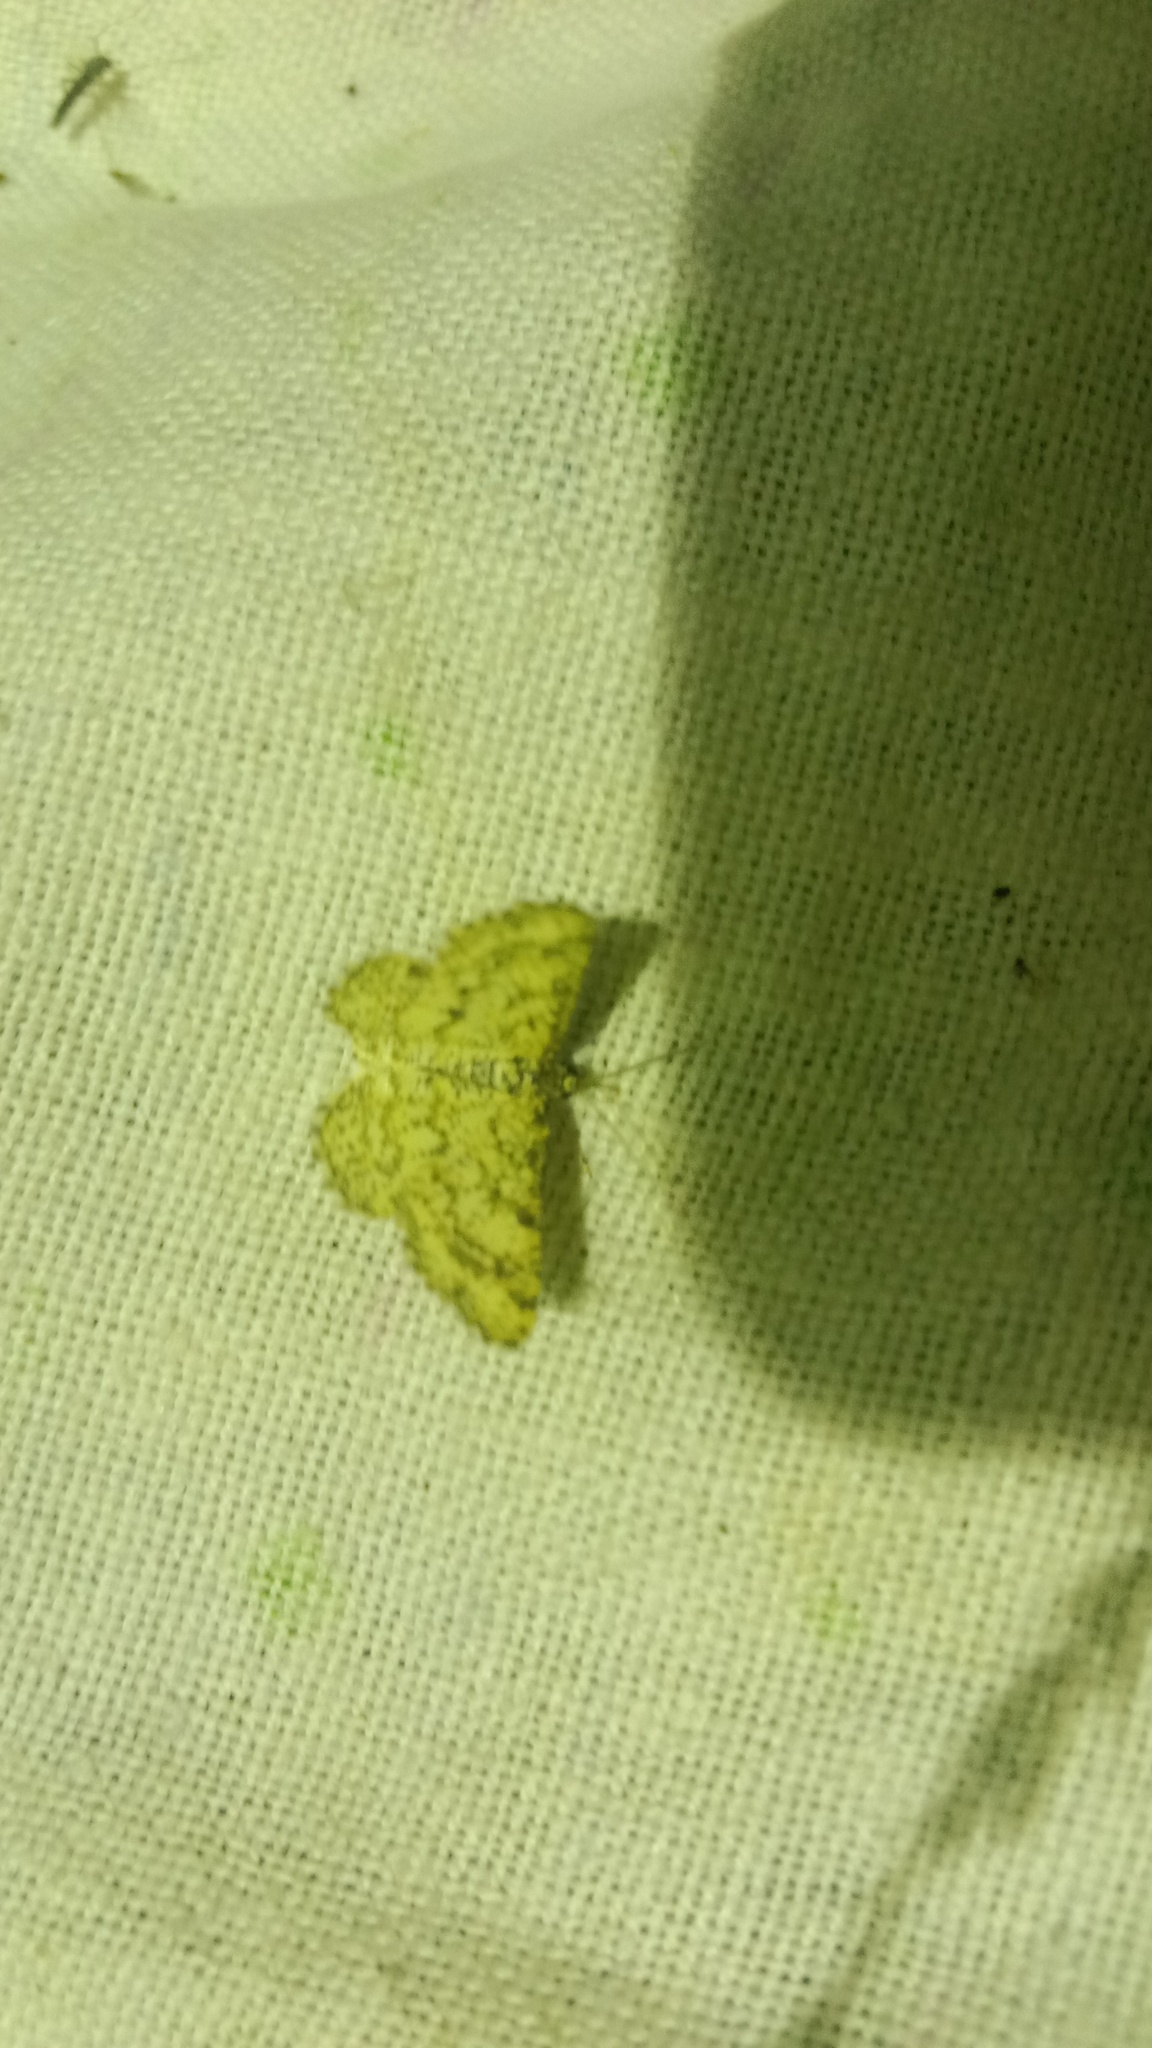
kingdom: Animalia
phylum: Arthropoda
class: Insecta
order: Lepidoptera
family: Geometridae
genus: Heliomata
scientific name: Heliomata glarearia
